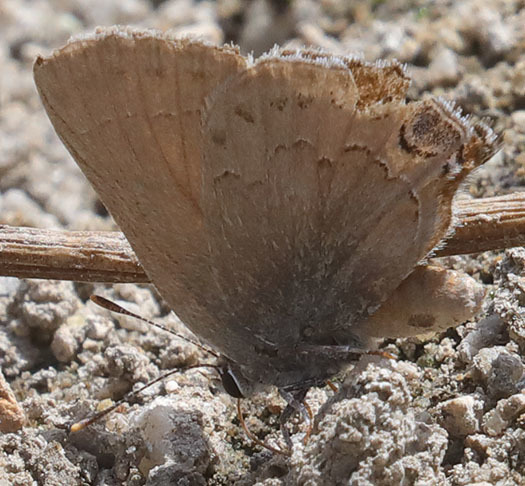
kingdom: Animalia
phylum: Arthropoda
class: Insecta
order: Lepidoptera
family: Lycaenidae
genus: Strymon
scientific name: Strymon saepium
